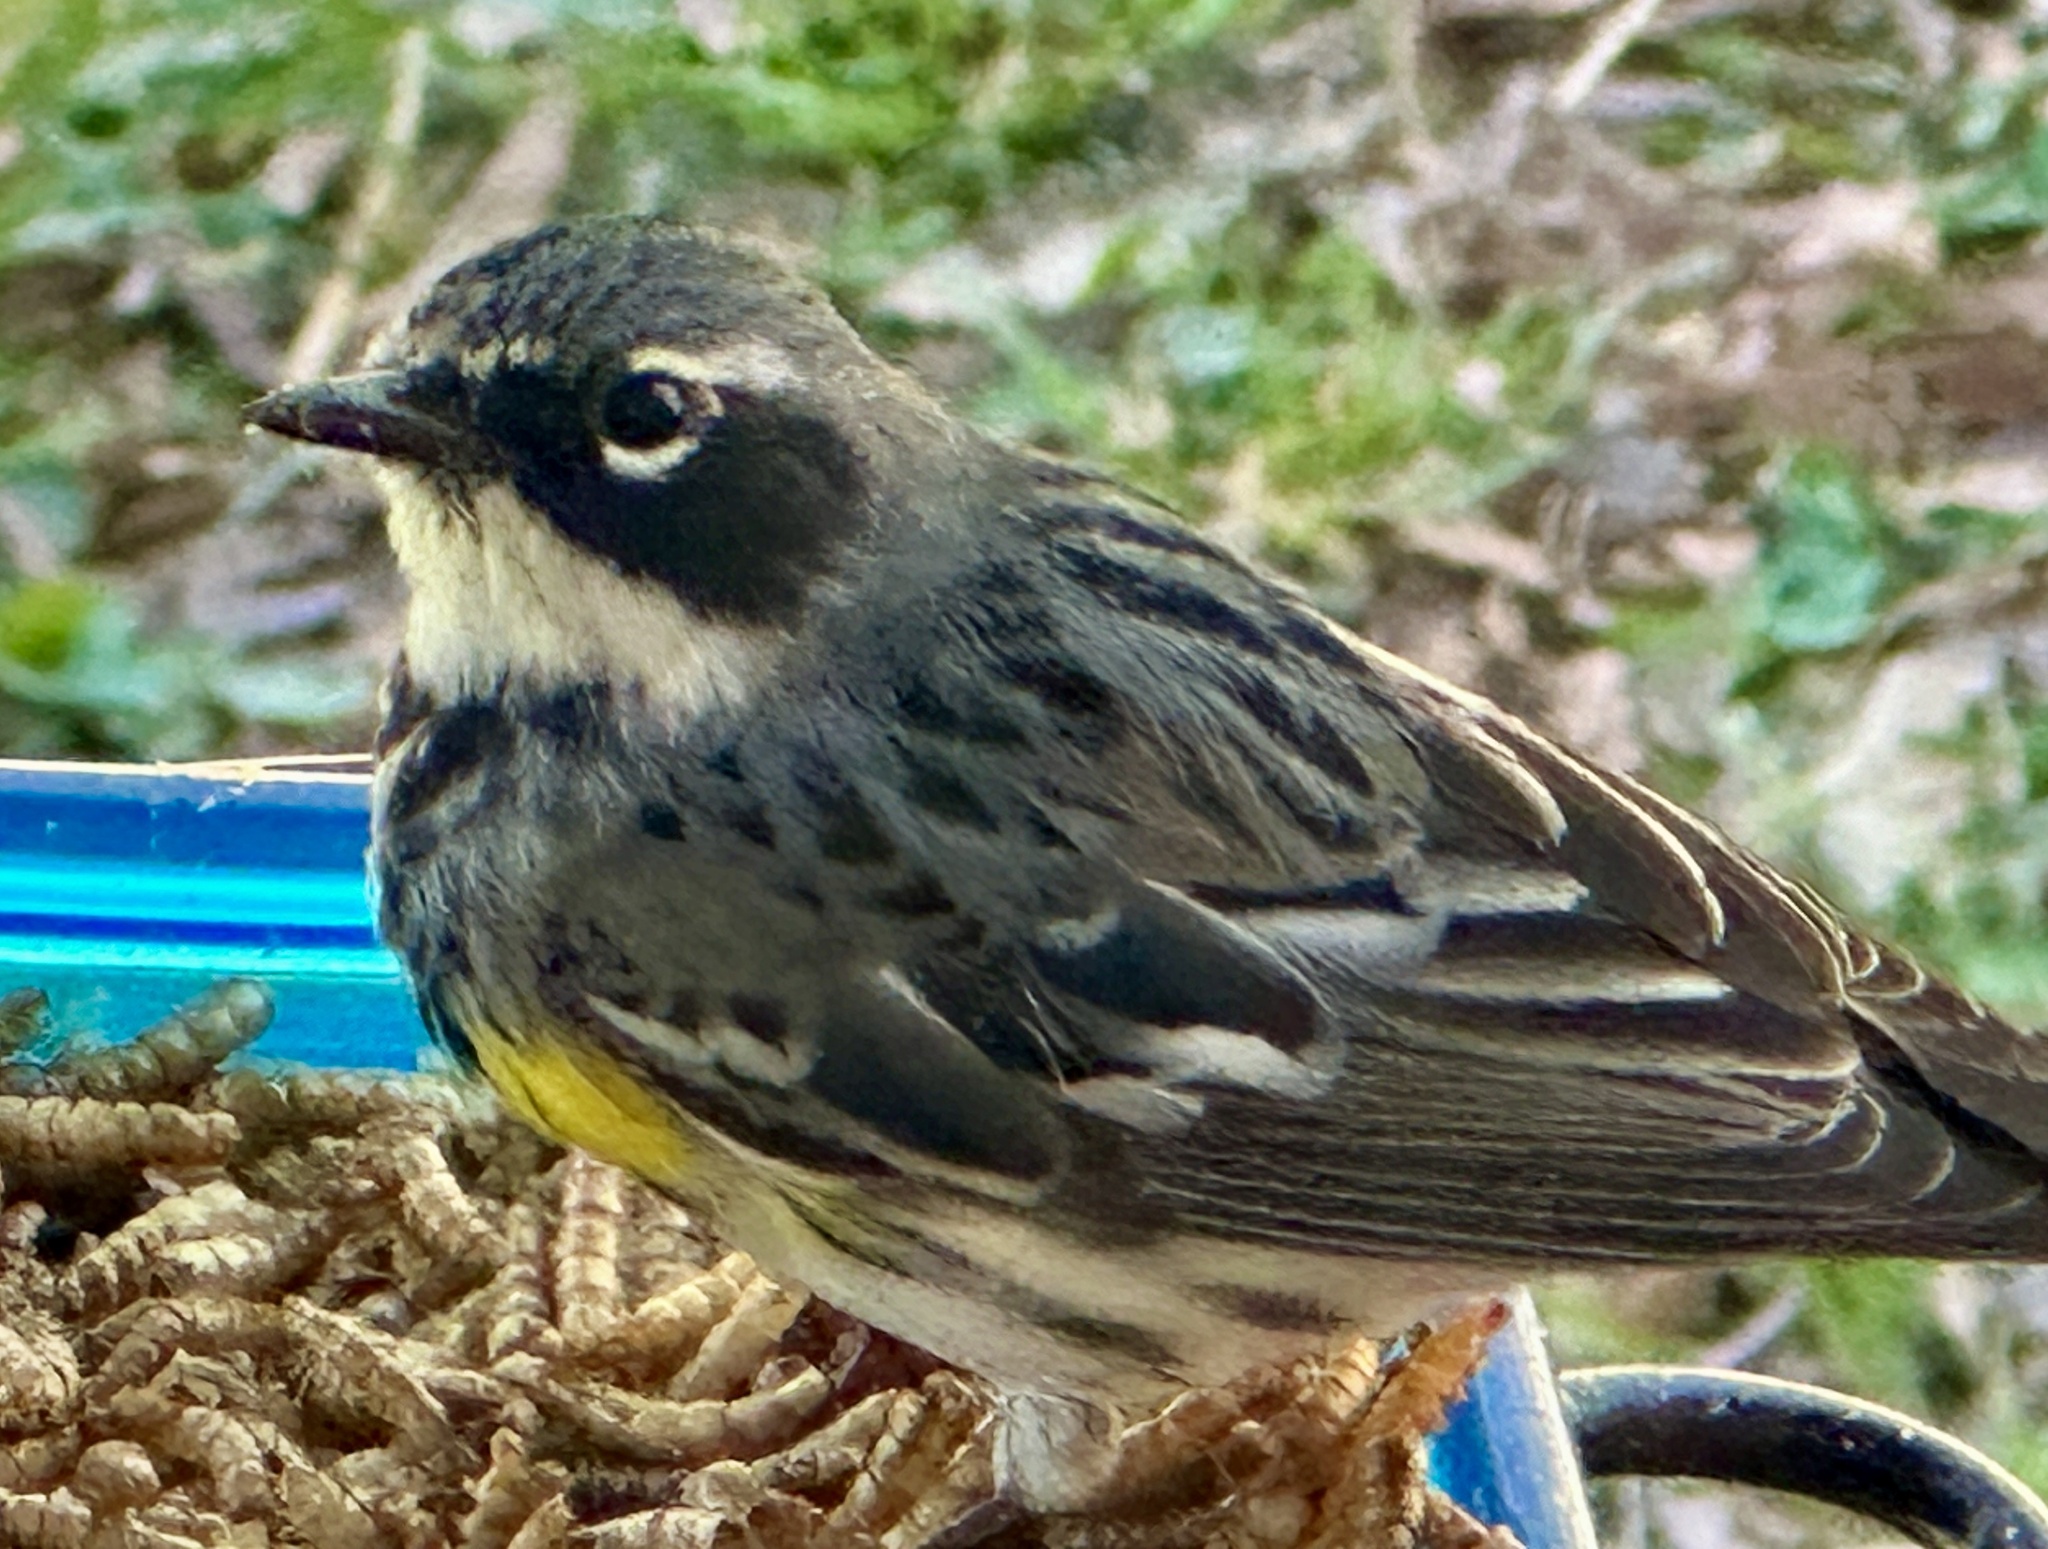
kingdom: Animalia
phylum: Chordata
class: Aves
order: Passeriformes
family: Parulidae
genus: Setophaga
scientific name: Setophaga coronata
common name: Myrtle warbler
